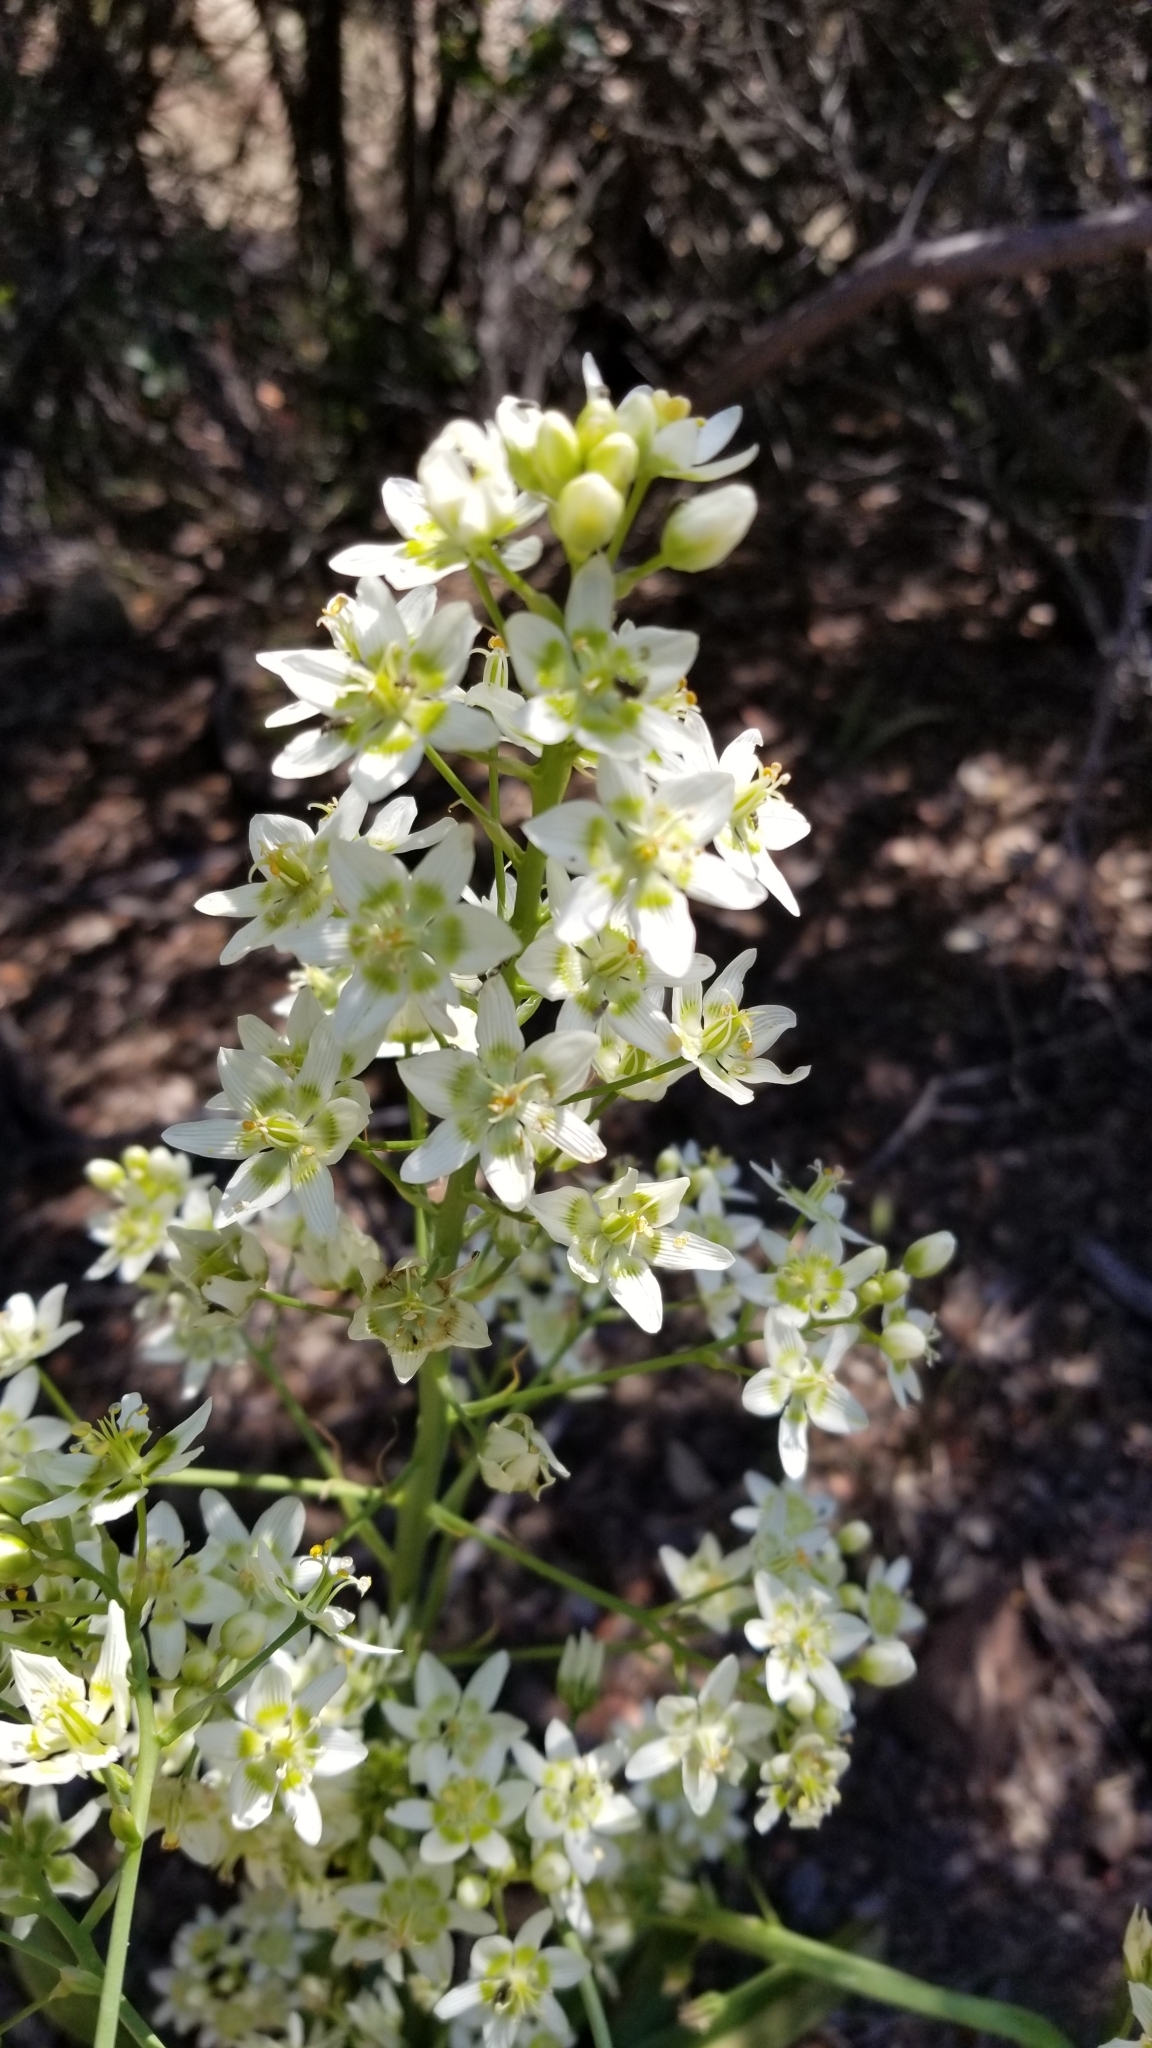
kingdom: Plantae
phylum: Tracheophyta
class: Liliopsida
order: Liliales
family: Melanthiaceae
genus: Toxicoscordion
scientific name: Toxicoscordion fremontii
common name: Fremont's death camas
